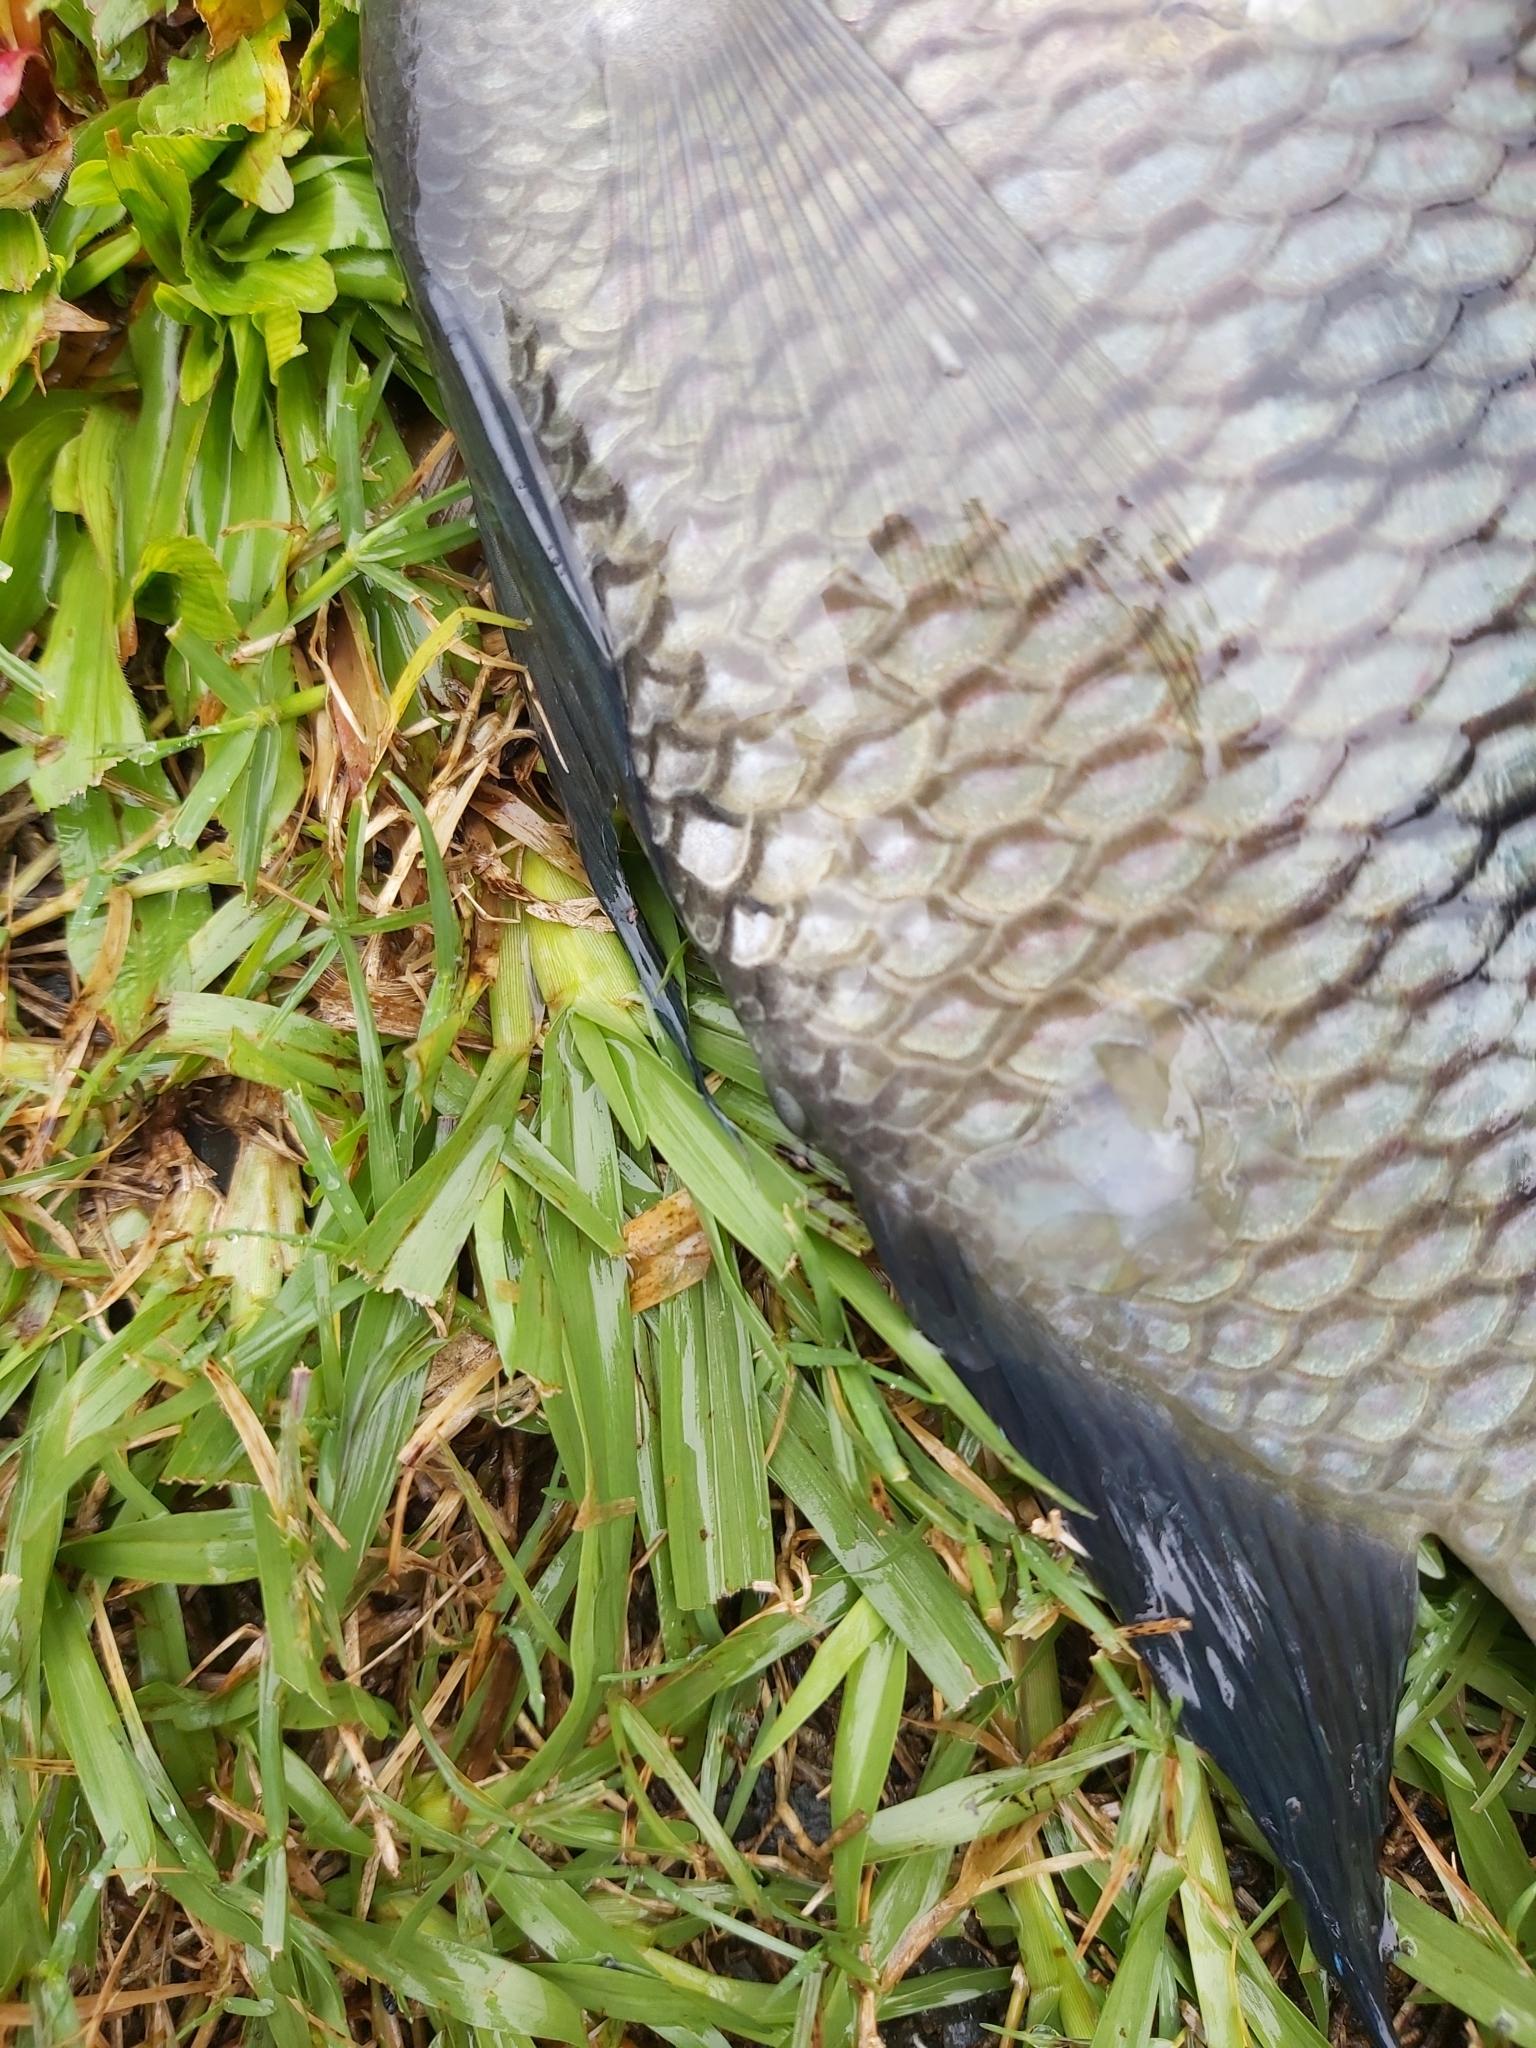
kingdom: Animalia
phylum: Chordata
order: Perciformes
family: Cichlidae
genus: Pelmatolapia
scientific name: Pelmatolapia mariae
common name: Spotted tilapia
